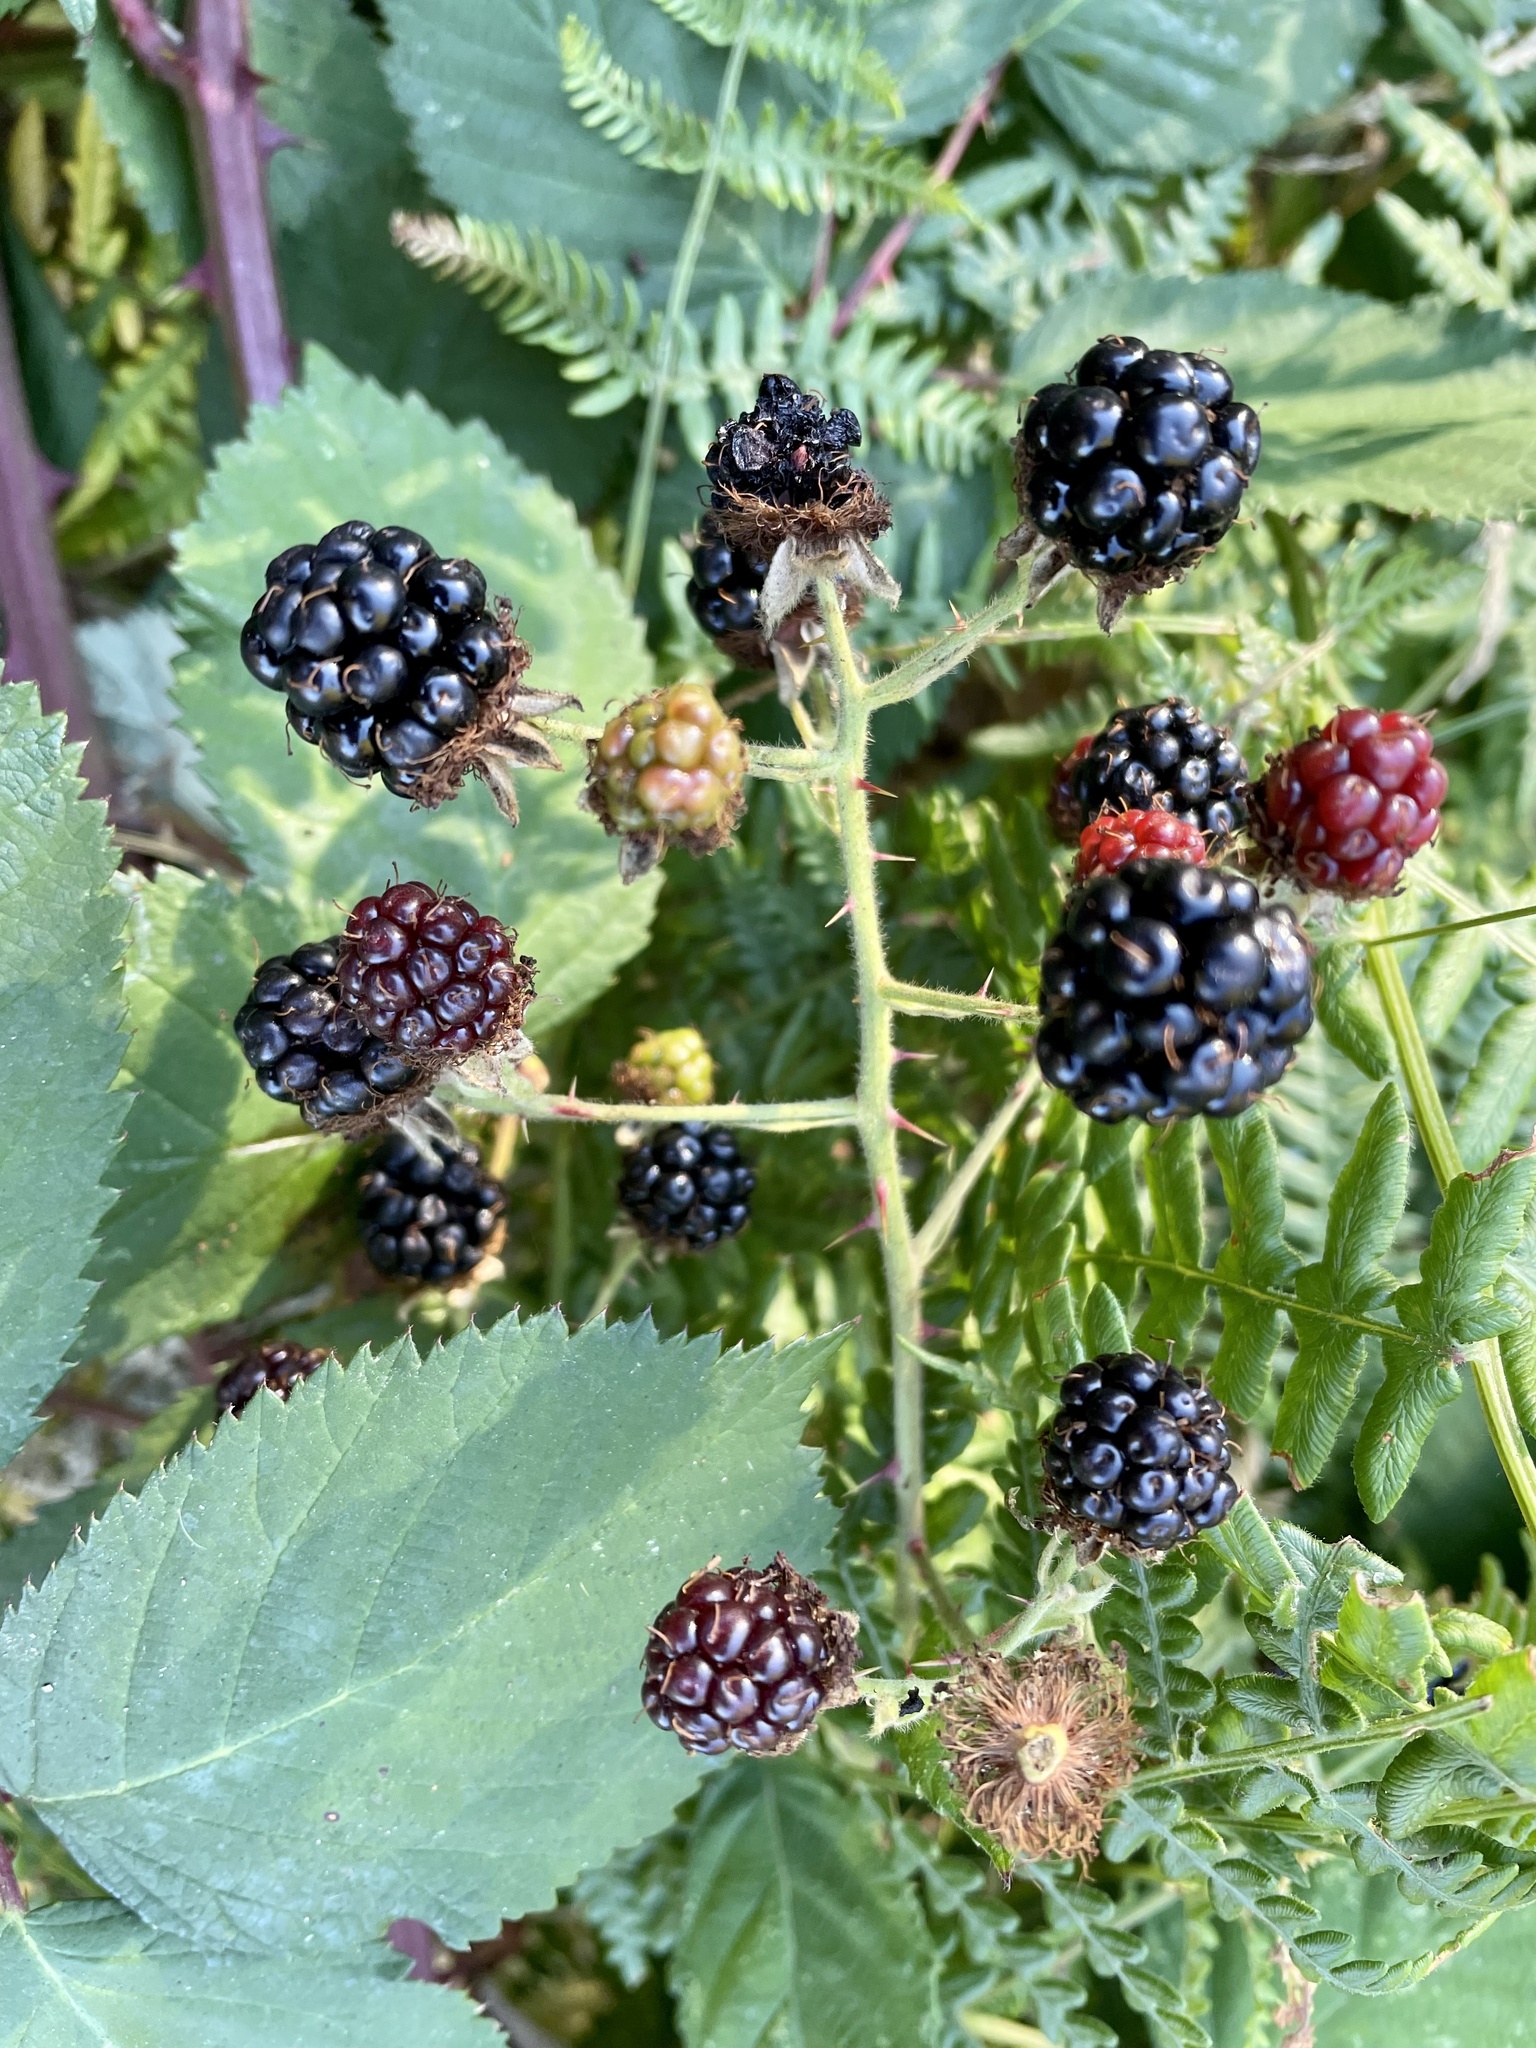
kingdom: Plantae
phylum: Tracheophyta
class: Magnoliopsida
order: Rosales
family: Rosaceae
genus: Rubus
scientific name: Rubus armeniacus
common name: Himalayan blackberry
